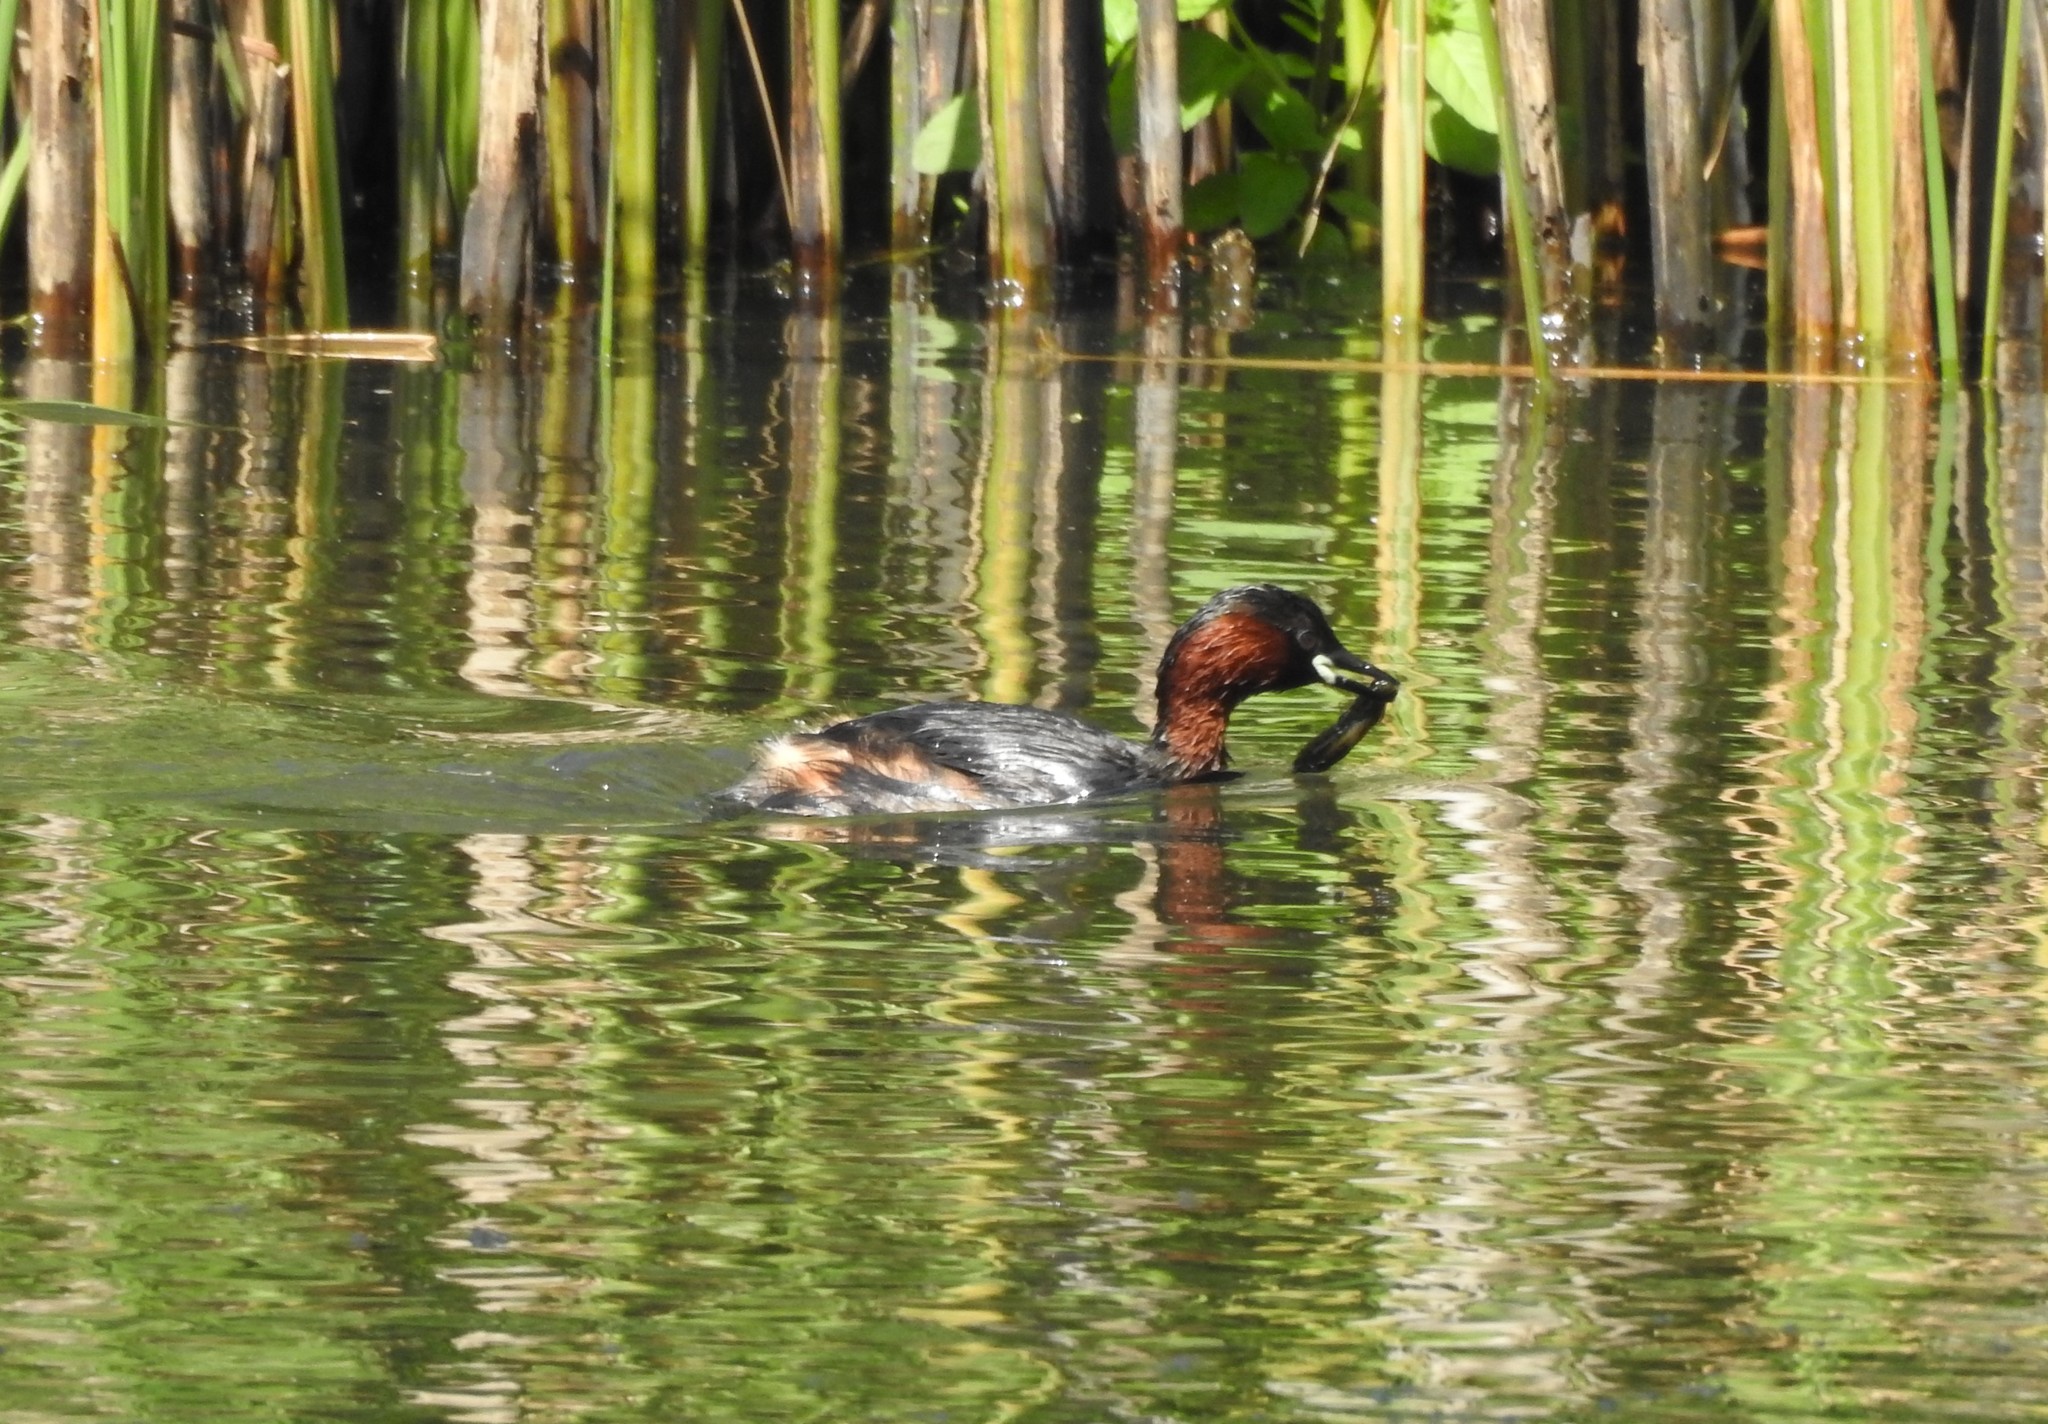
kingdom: Animalia
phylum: Chordata
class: Aves
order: Podicipediformes
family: Podicipedidae
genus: Tachybaptus
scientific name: Tachybaptus ruficollis
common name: Little grebe
